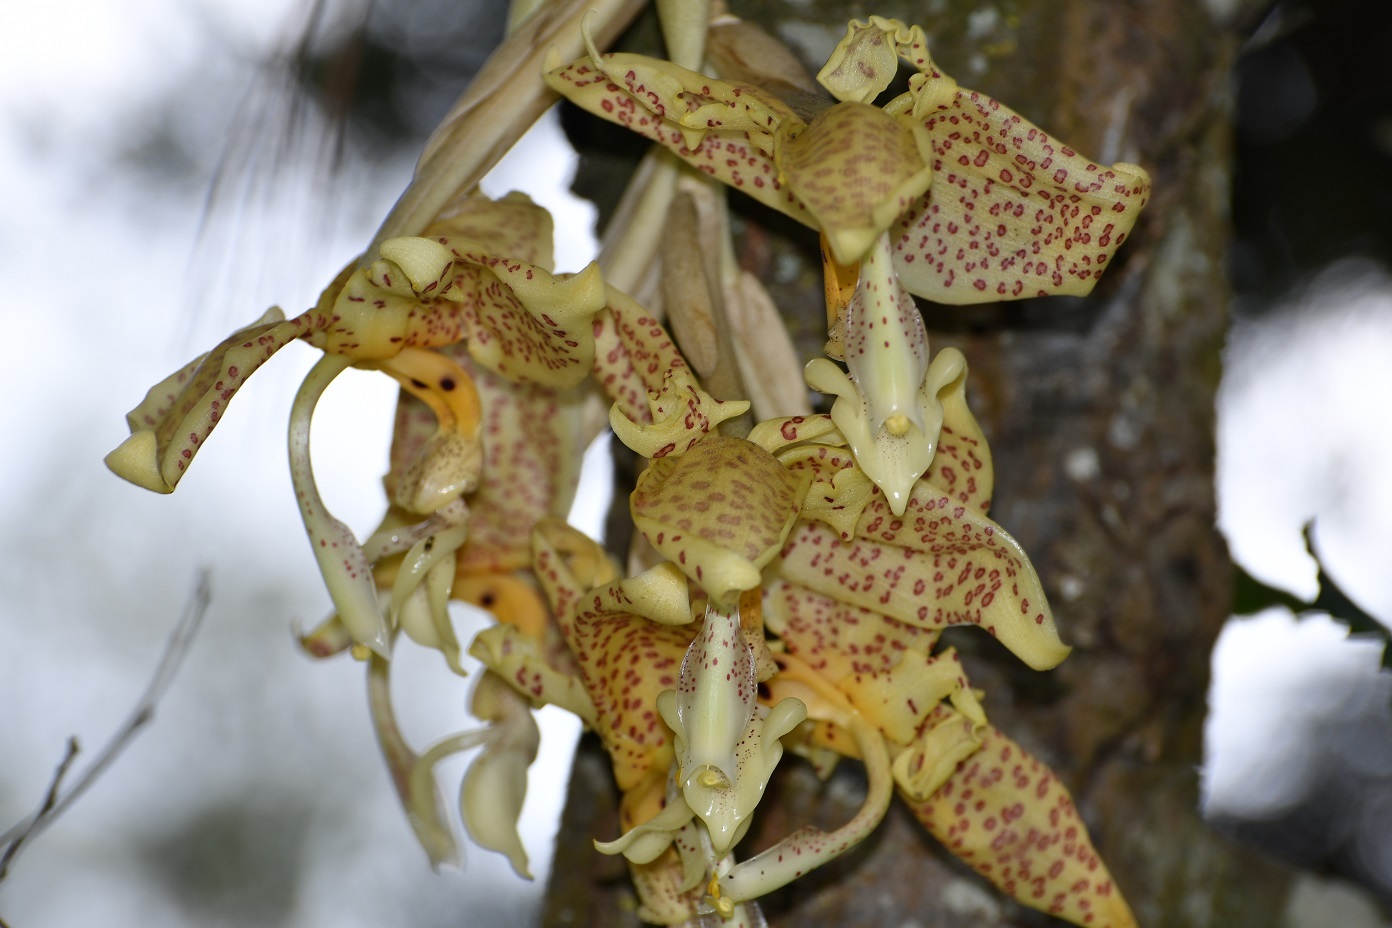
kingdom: Plantae
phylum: Tracheophyta
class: Liliopsida
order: Asparagales
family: Orchidaceae
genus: Stanhopea
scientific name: Stanhopea dodsoniana
